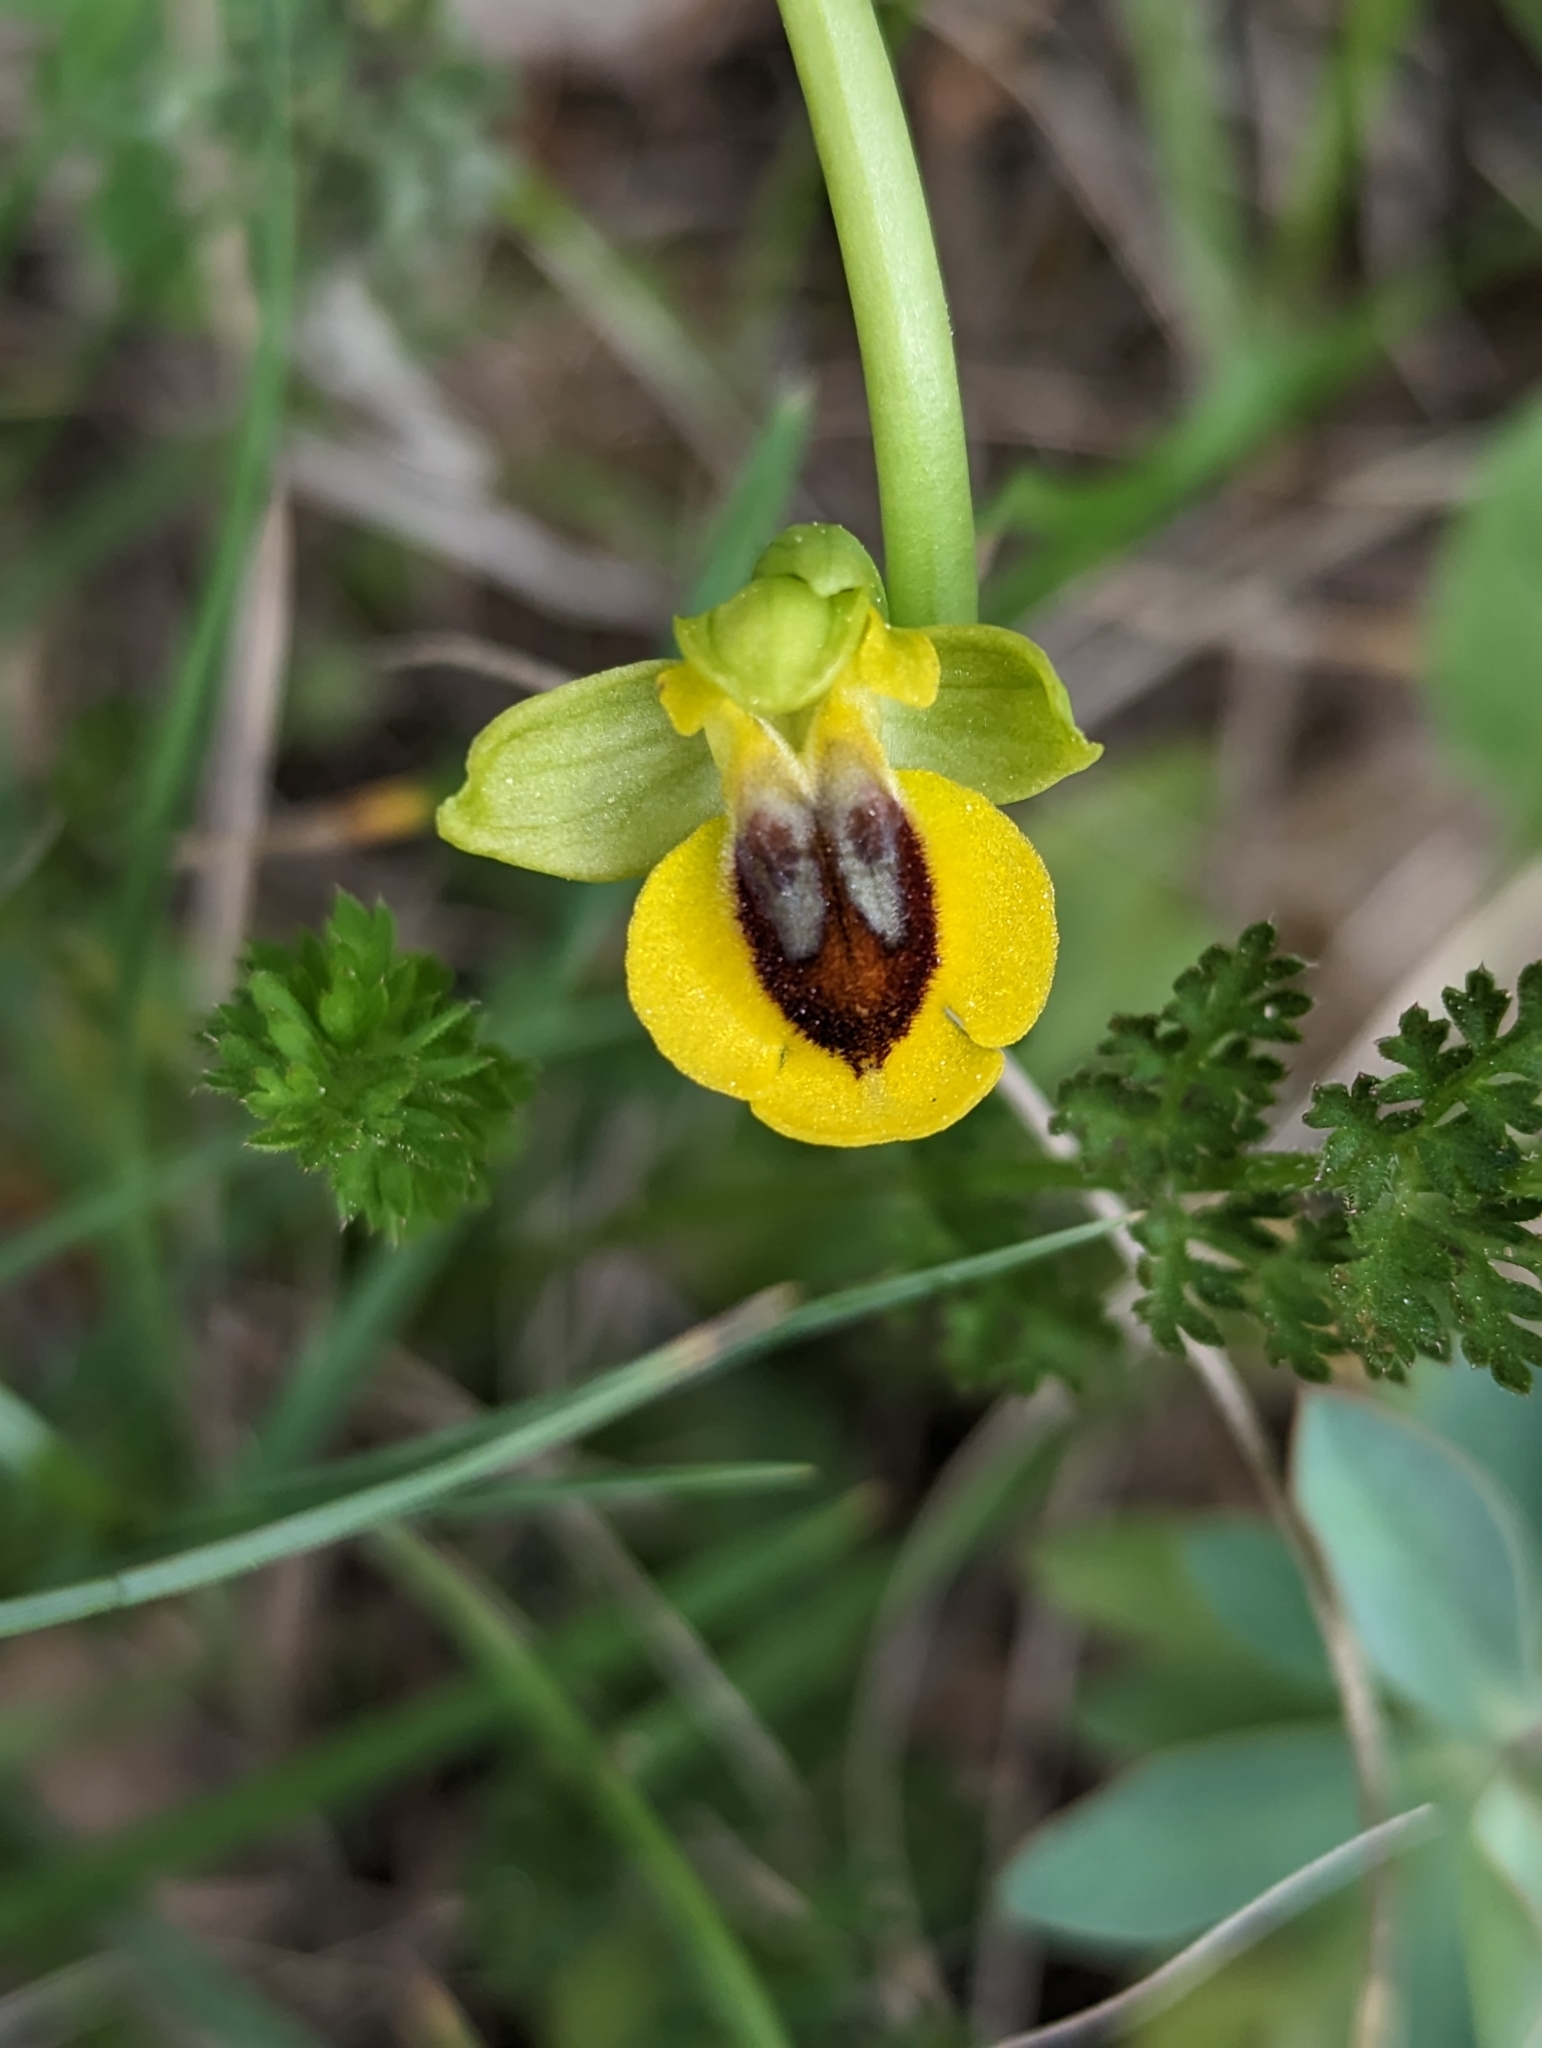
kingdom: Plantae
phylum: Tracheophyta
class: Liliopsida
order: Asparagales
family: Orchidaceae
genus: Ophrys
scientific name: Ophrys lutea
